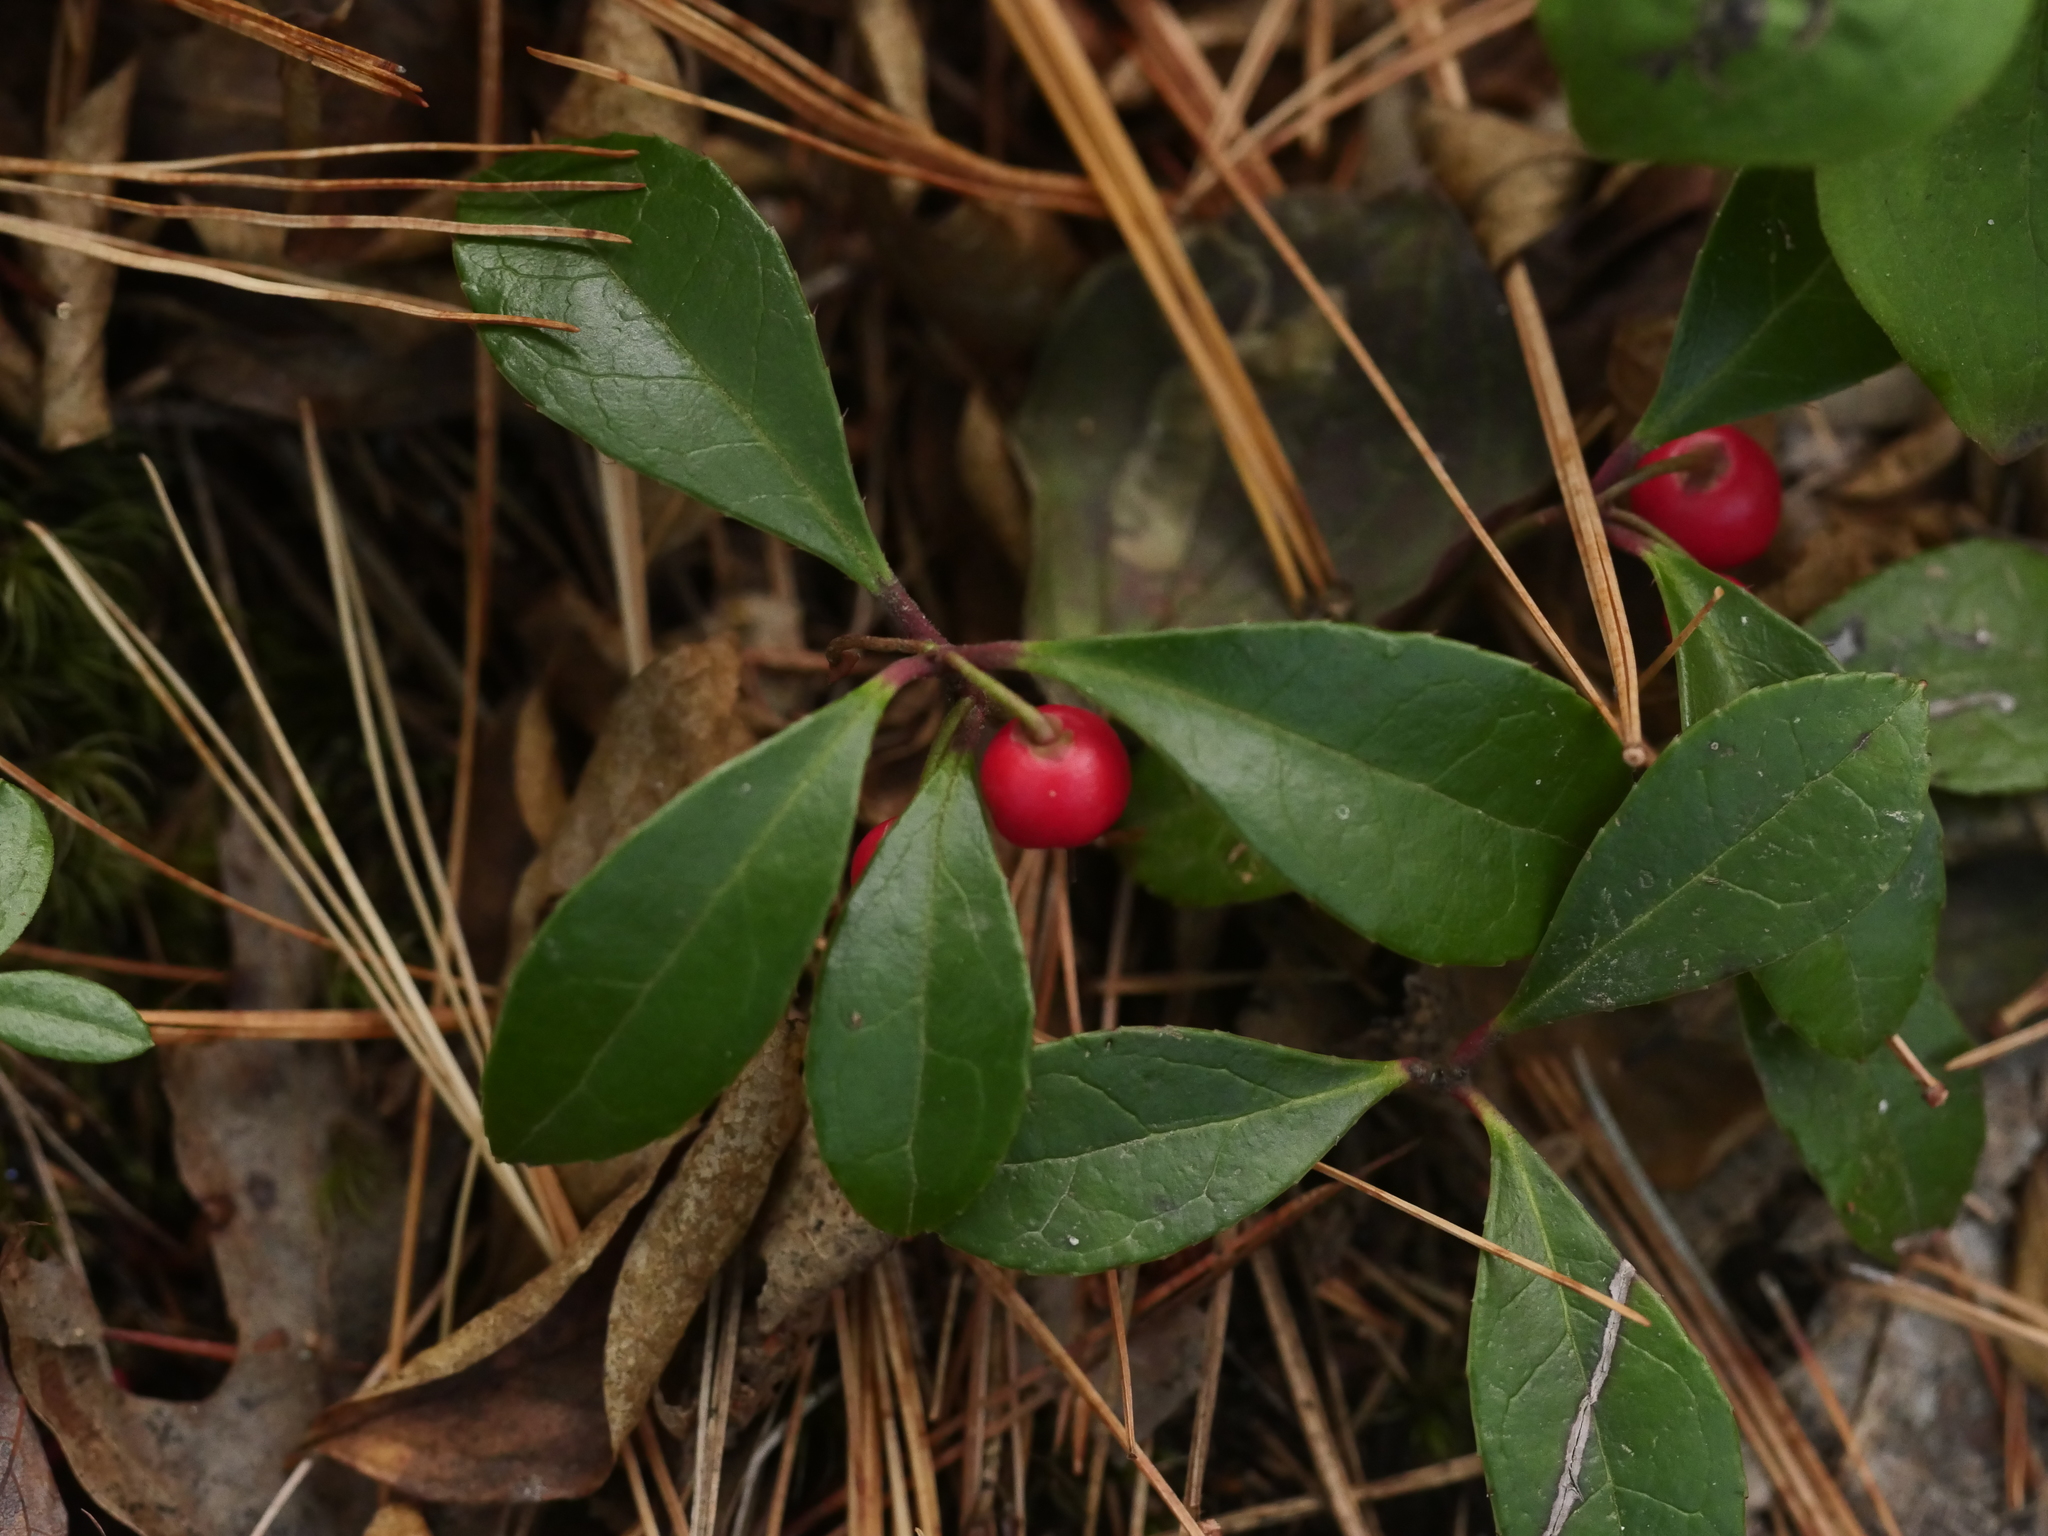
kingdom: Plantae
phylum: Tracheophyta
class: Magnoliopsida
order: Ericales
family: Ericaceae
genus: Gaultheria
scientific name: Gaultheria procumbens
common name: Checkerberry
